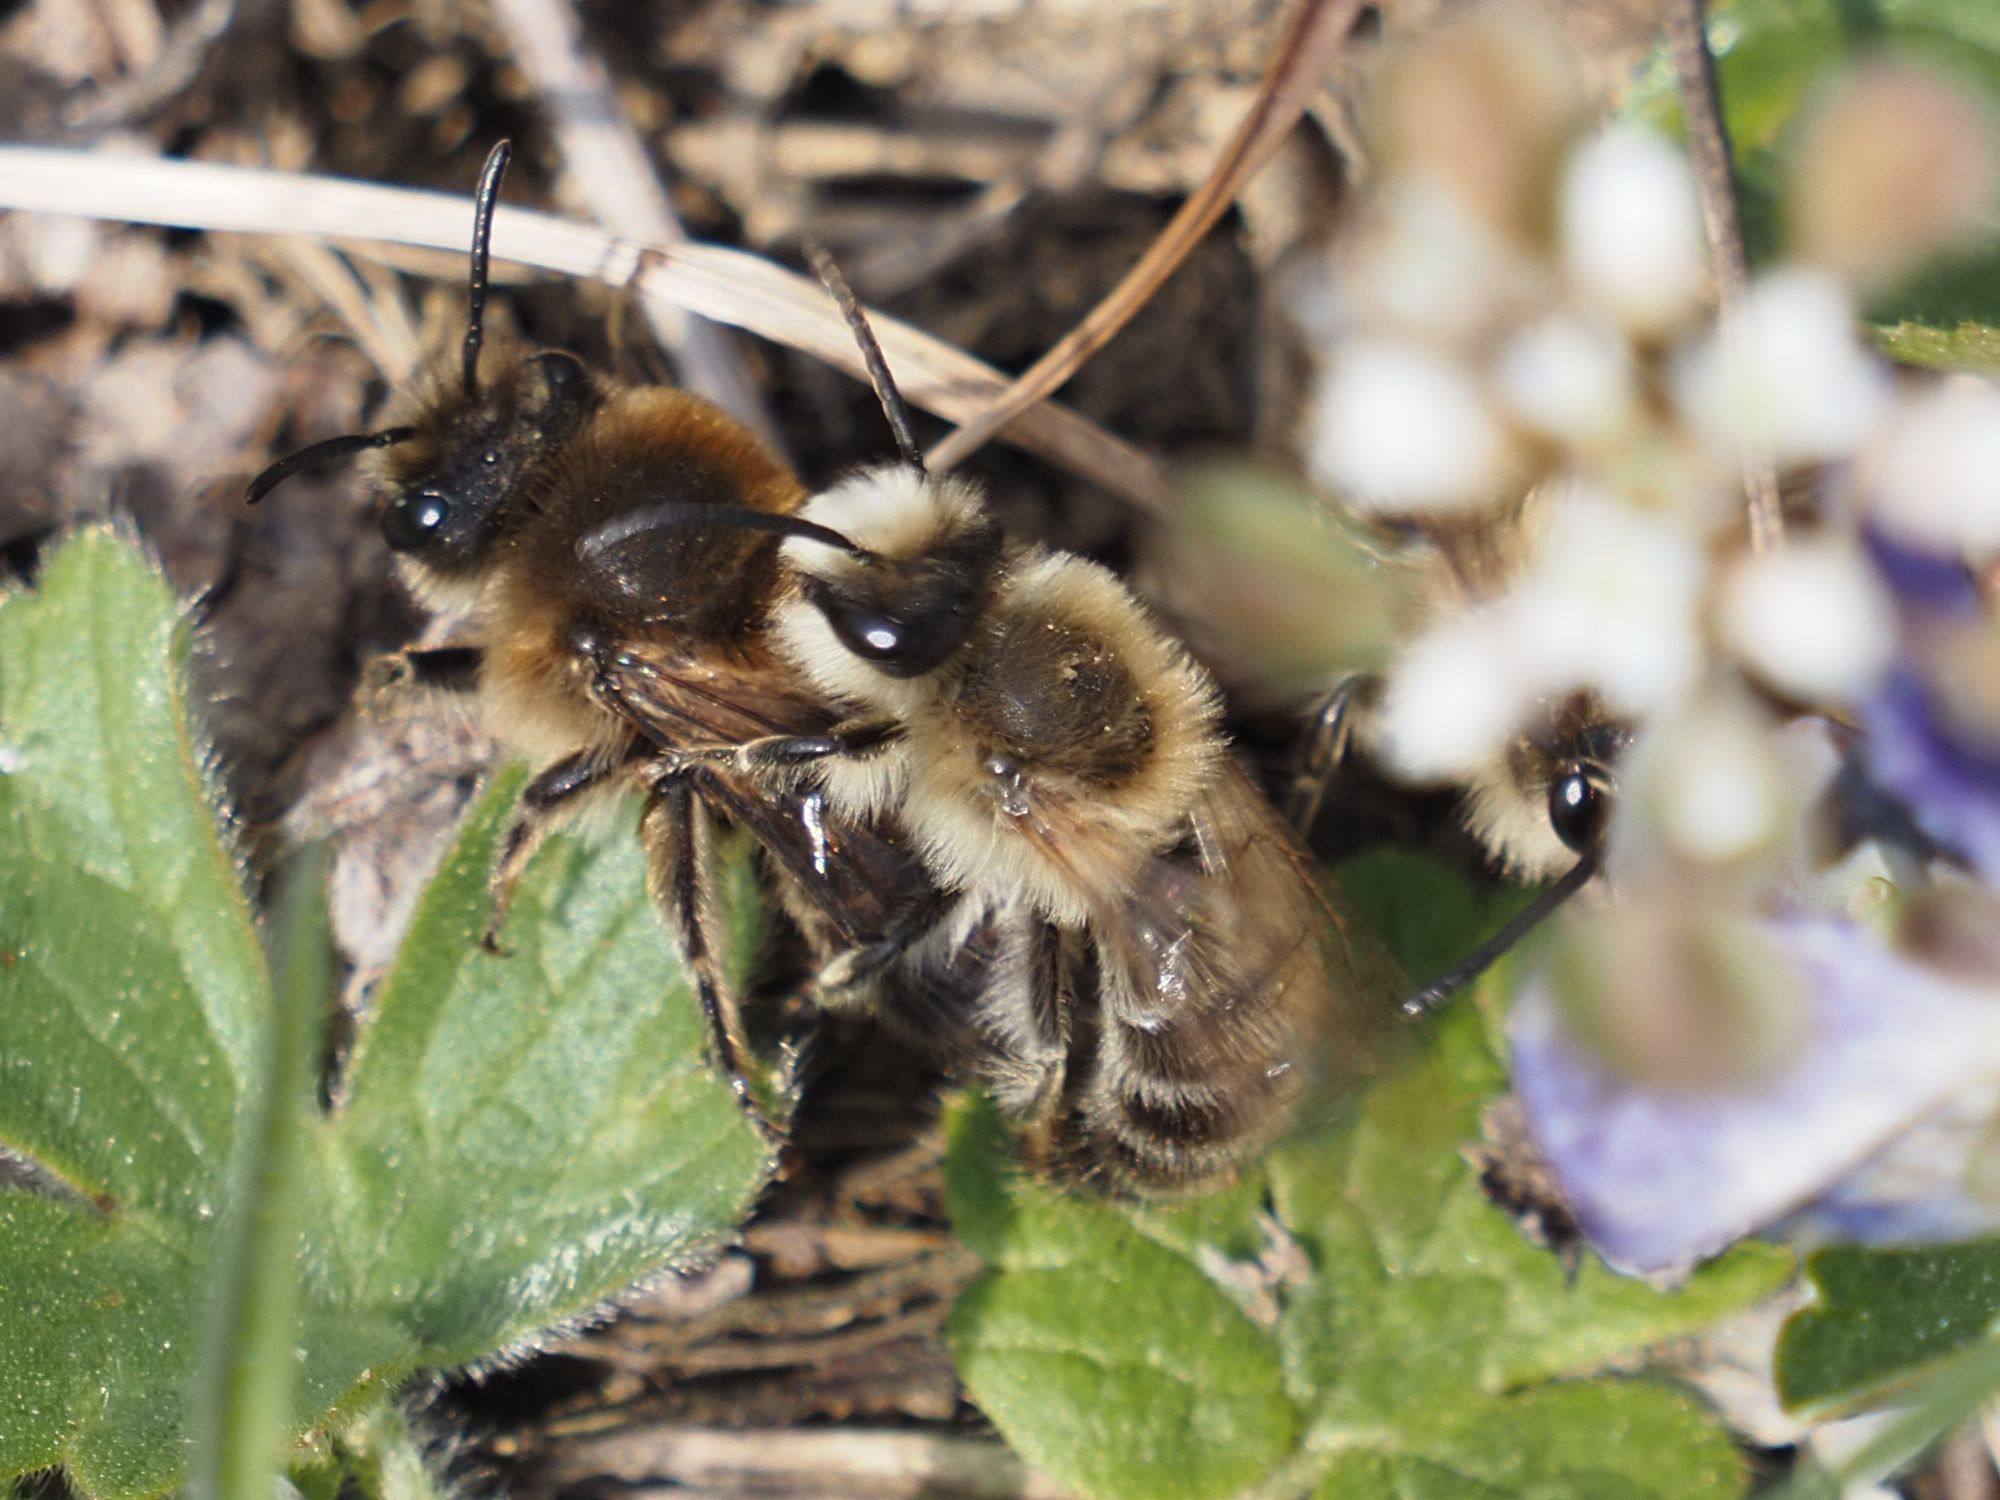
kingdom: Animalia
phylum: Arthropoda
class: Insecta
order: Hymenoptera
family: Colletidae
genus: Colletes
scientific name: Colletes cunicularius
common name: Early colletes
